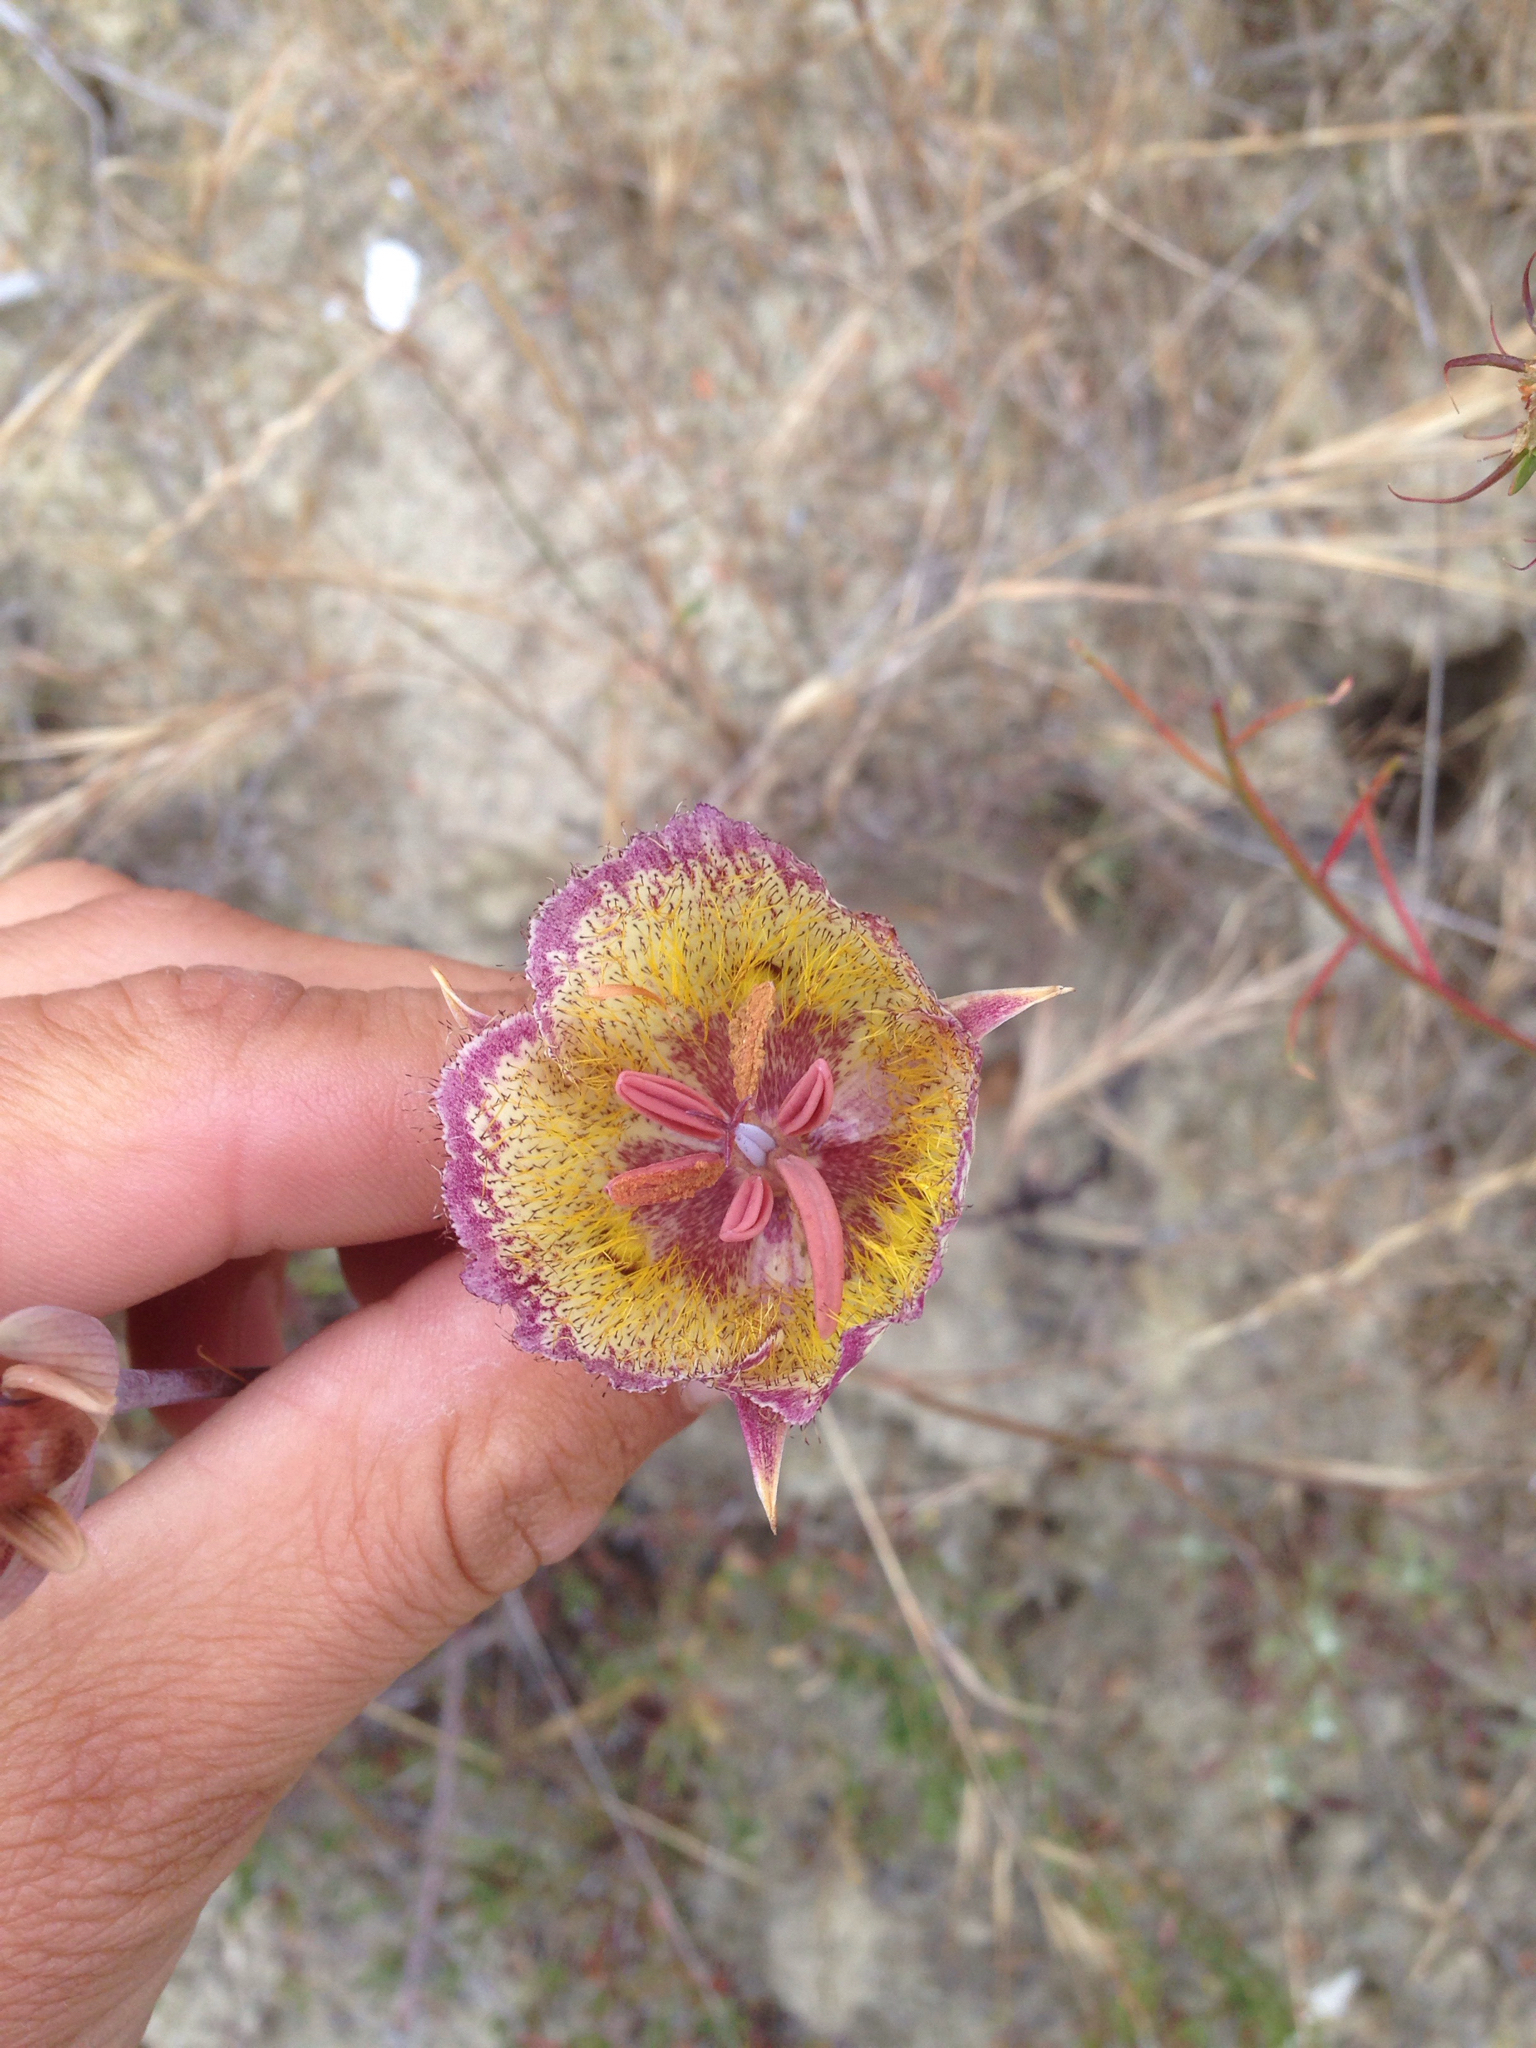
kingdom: Plantae
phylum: Tracheophyta
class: Liliopsida
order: Liliales
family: Liliaceae
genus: Calochortus
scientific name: Calochortus weedii
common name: Weed's mariposa-lily
